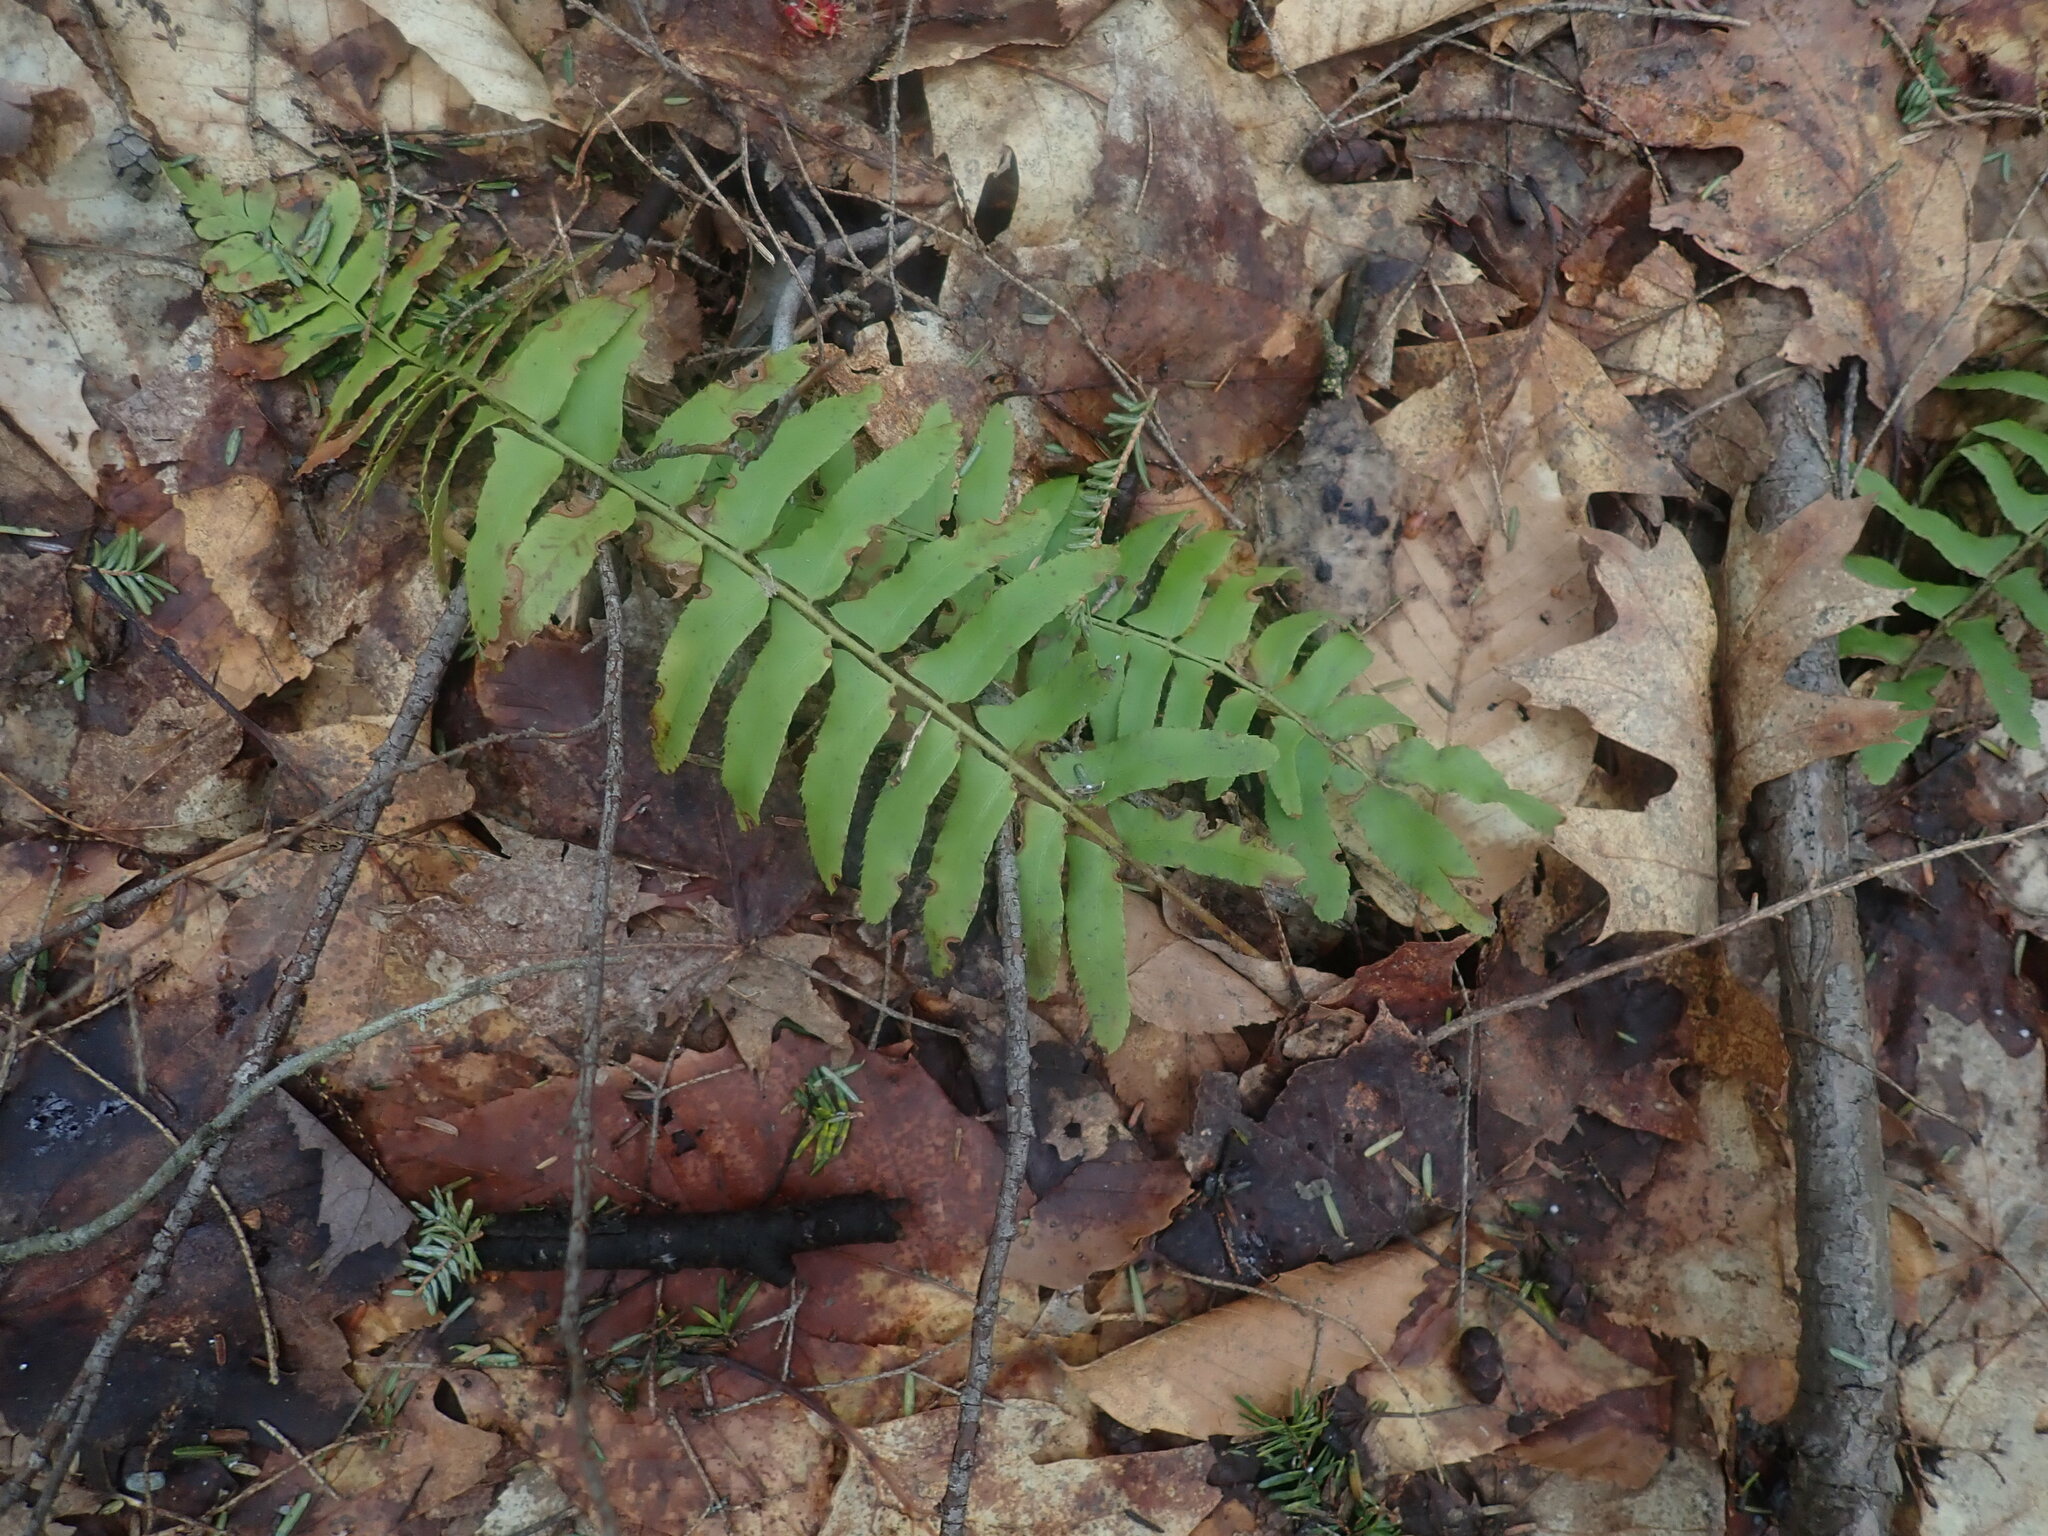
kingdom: Plantae
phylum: Tracheophyta
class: Polypodiopsida
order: Polypodiales
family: Dryopteridaceae
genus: Polystichum
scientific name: Polystichum acrostichoides
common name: Christmas fern
